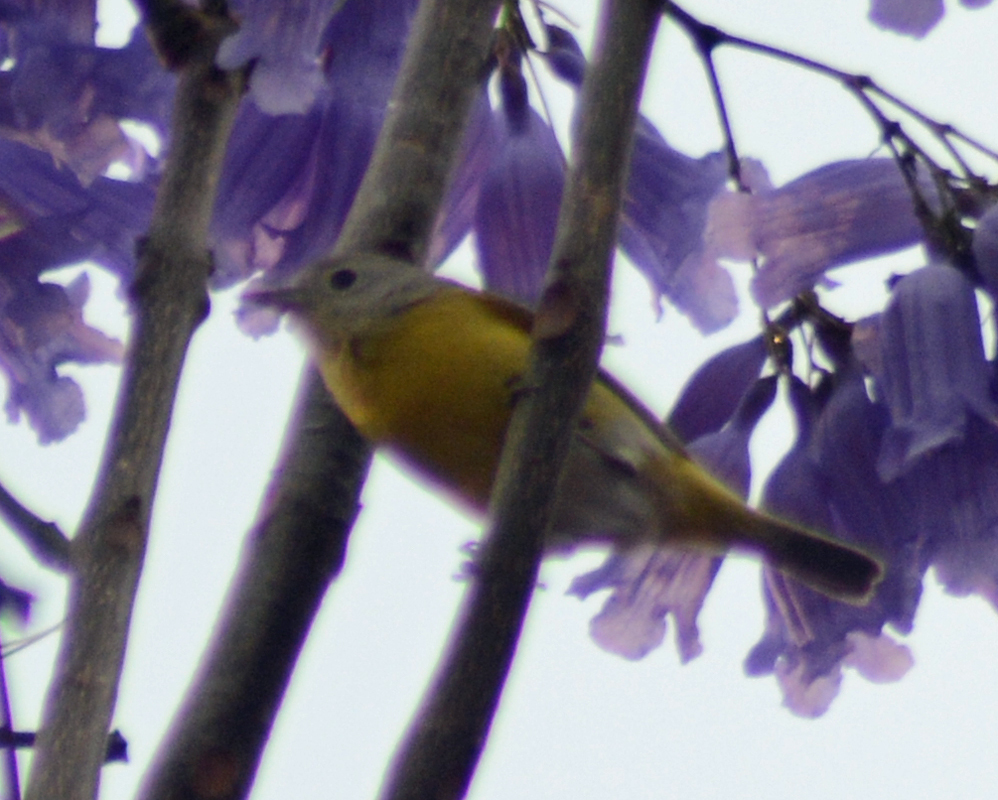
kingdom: Animalia
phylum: Chordata
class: Aves
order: Passeriformes
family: Parulidae
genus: Leiothlypis
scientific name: Leiothlypis ruficapilla
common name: Nashville warbler
